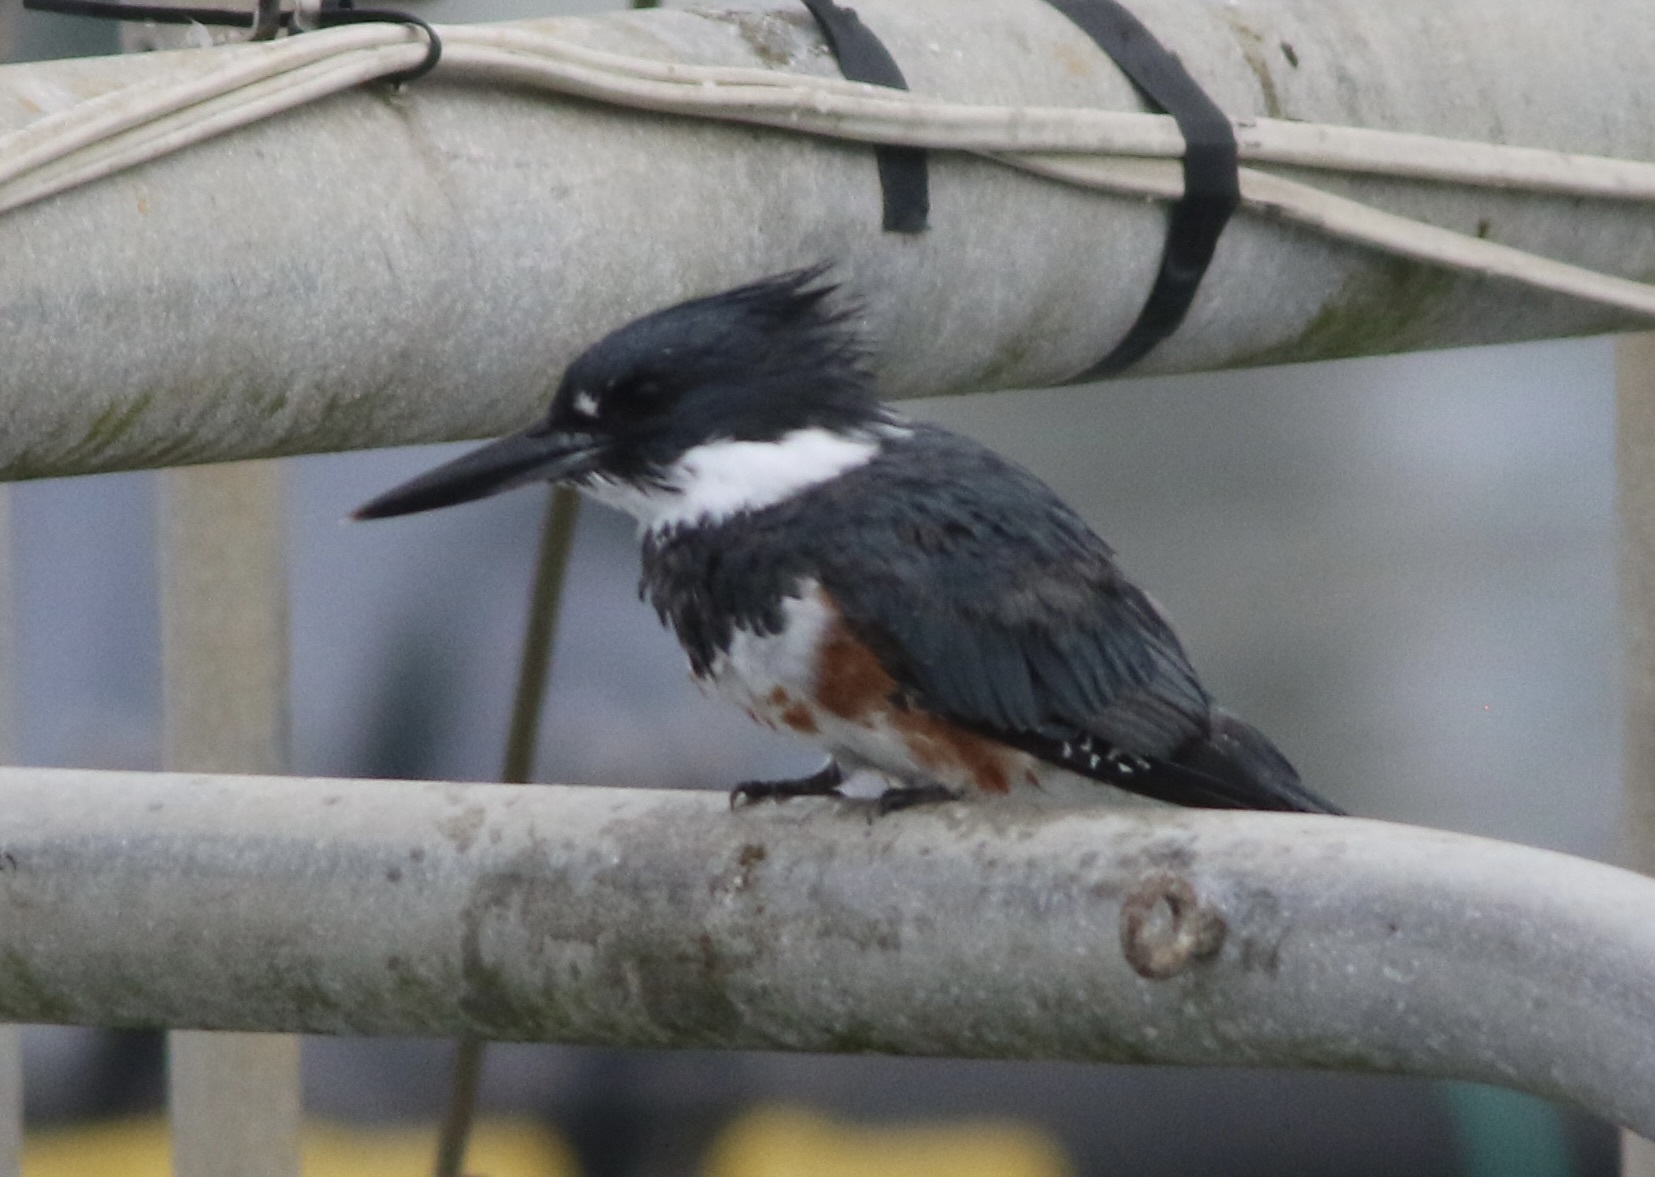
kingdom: Animalia
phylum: Chordata
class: Aves
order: Coraciiformes
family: Alcedinidae
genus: Megaceryle
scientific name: Megaceryle alcyon
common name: Belted kingfisher
